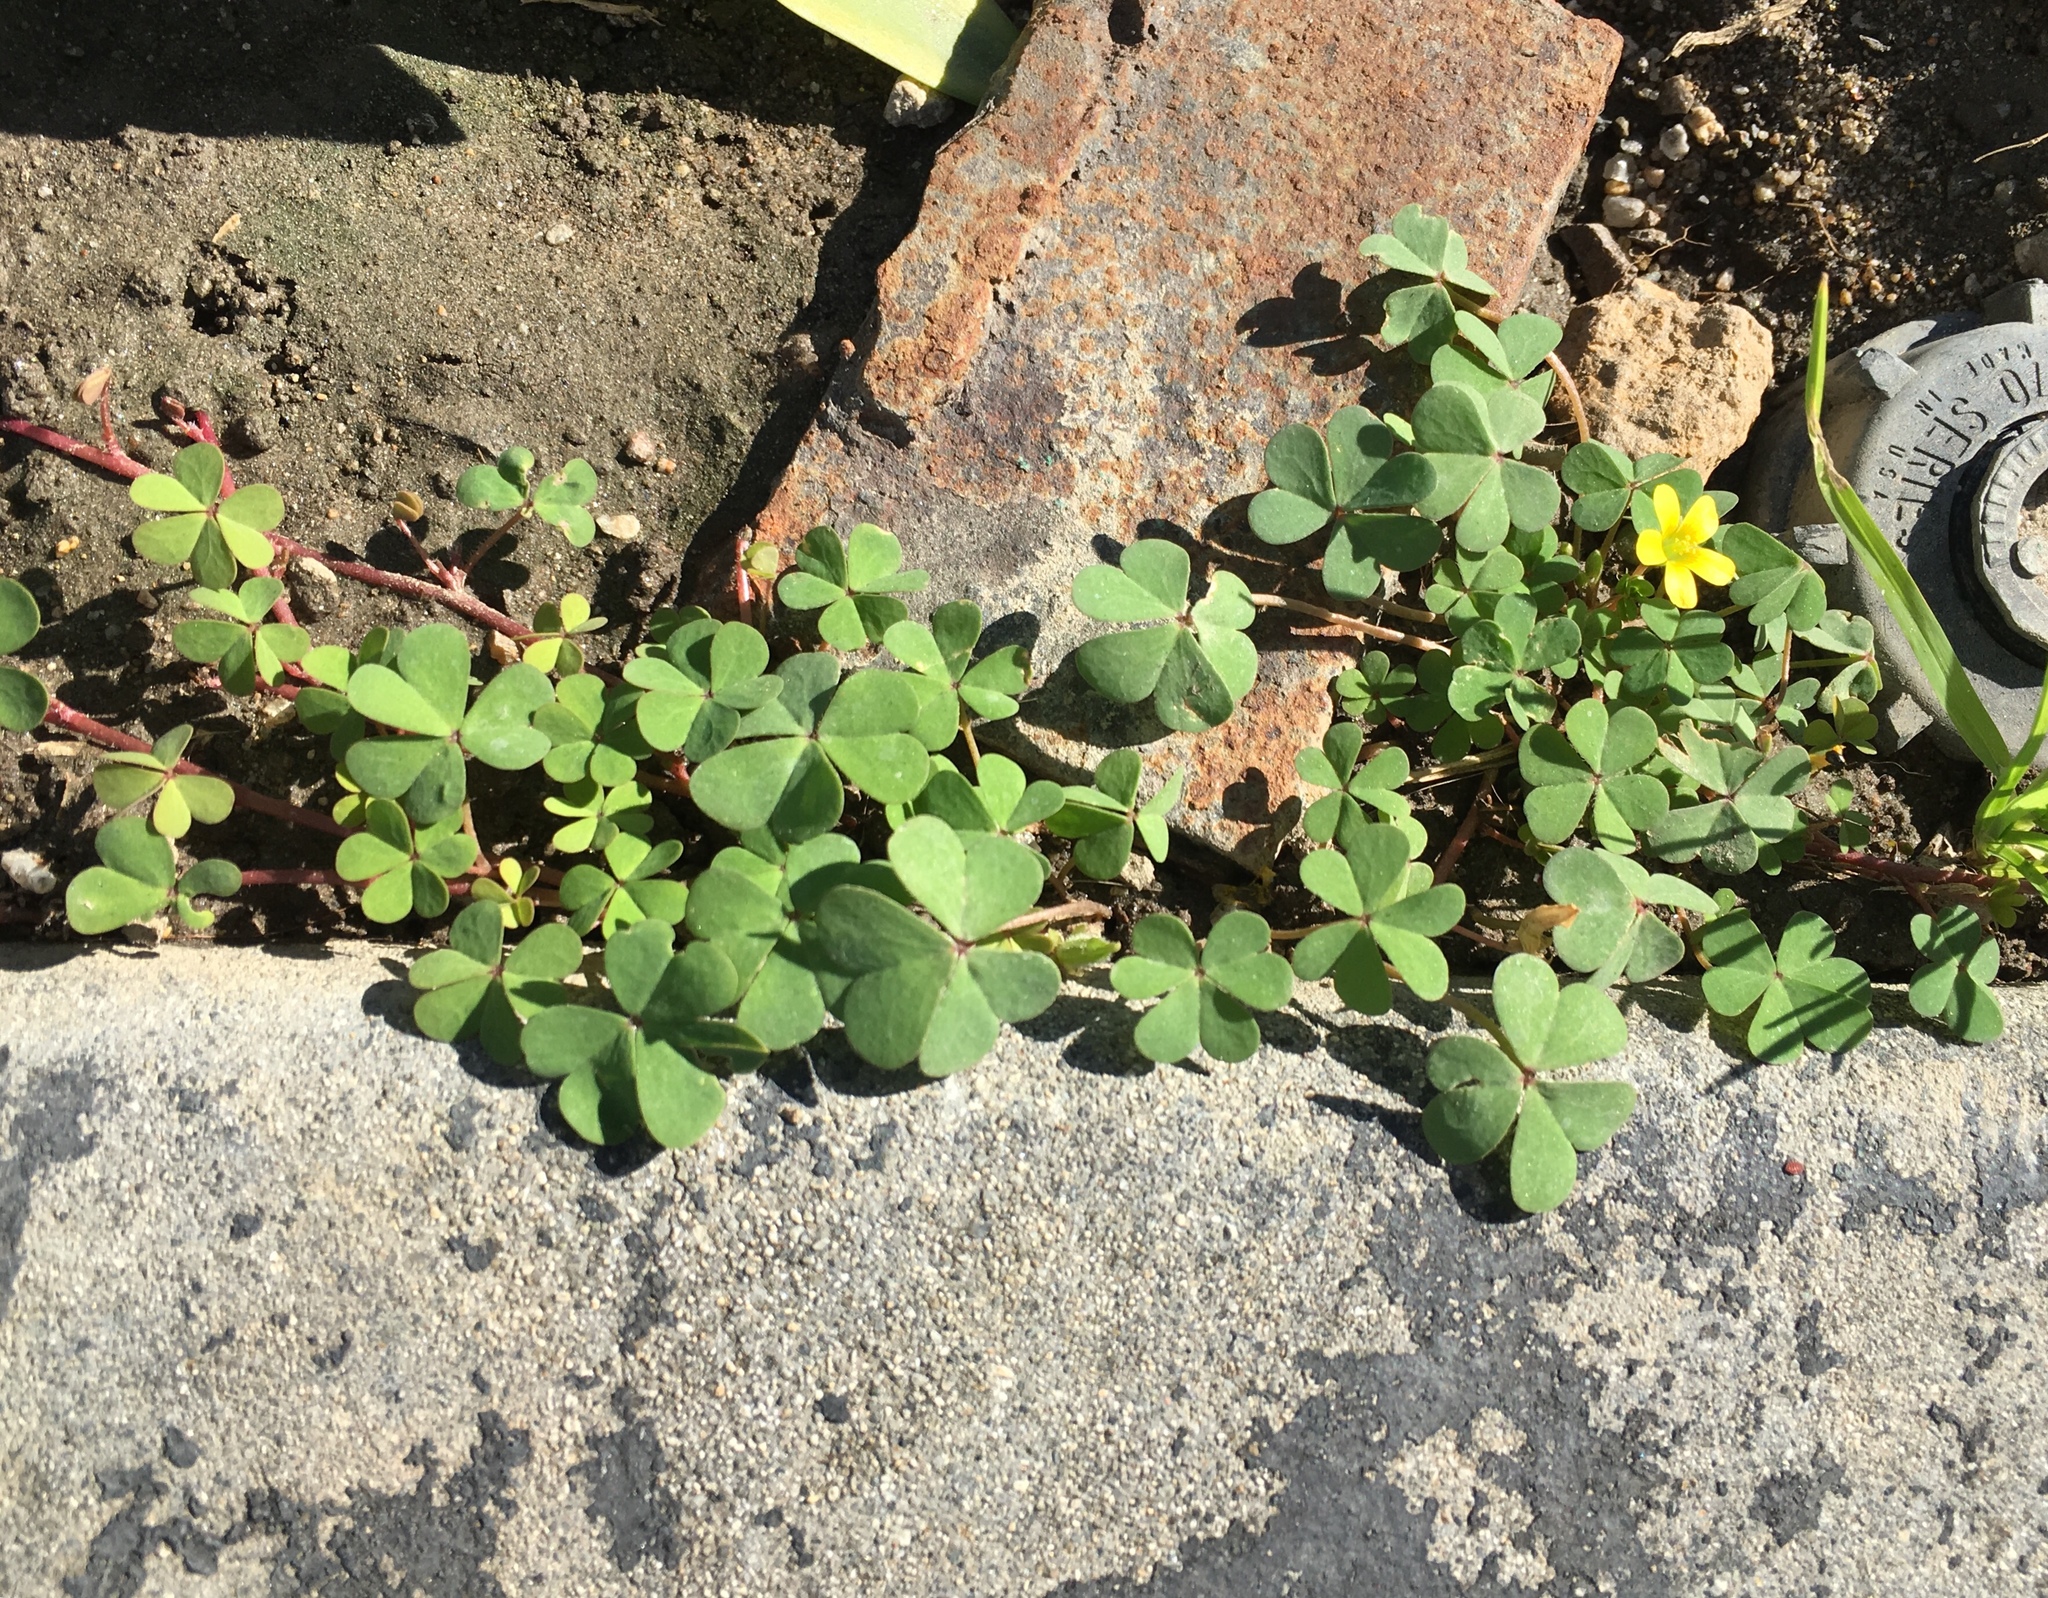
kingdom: Plantae
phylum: Tracheophyta
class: Magnoliopsida
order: Oxalidales
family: Oxalidaceae
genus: Oxalis
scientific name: Oxalis corniculata
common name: Procumbent yellow-sorrel
